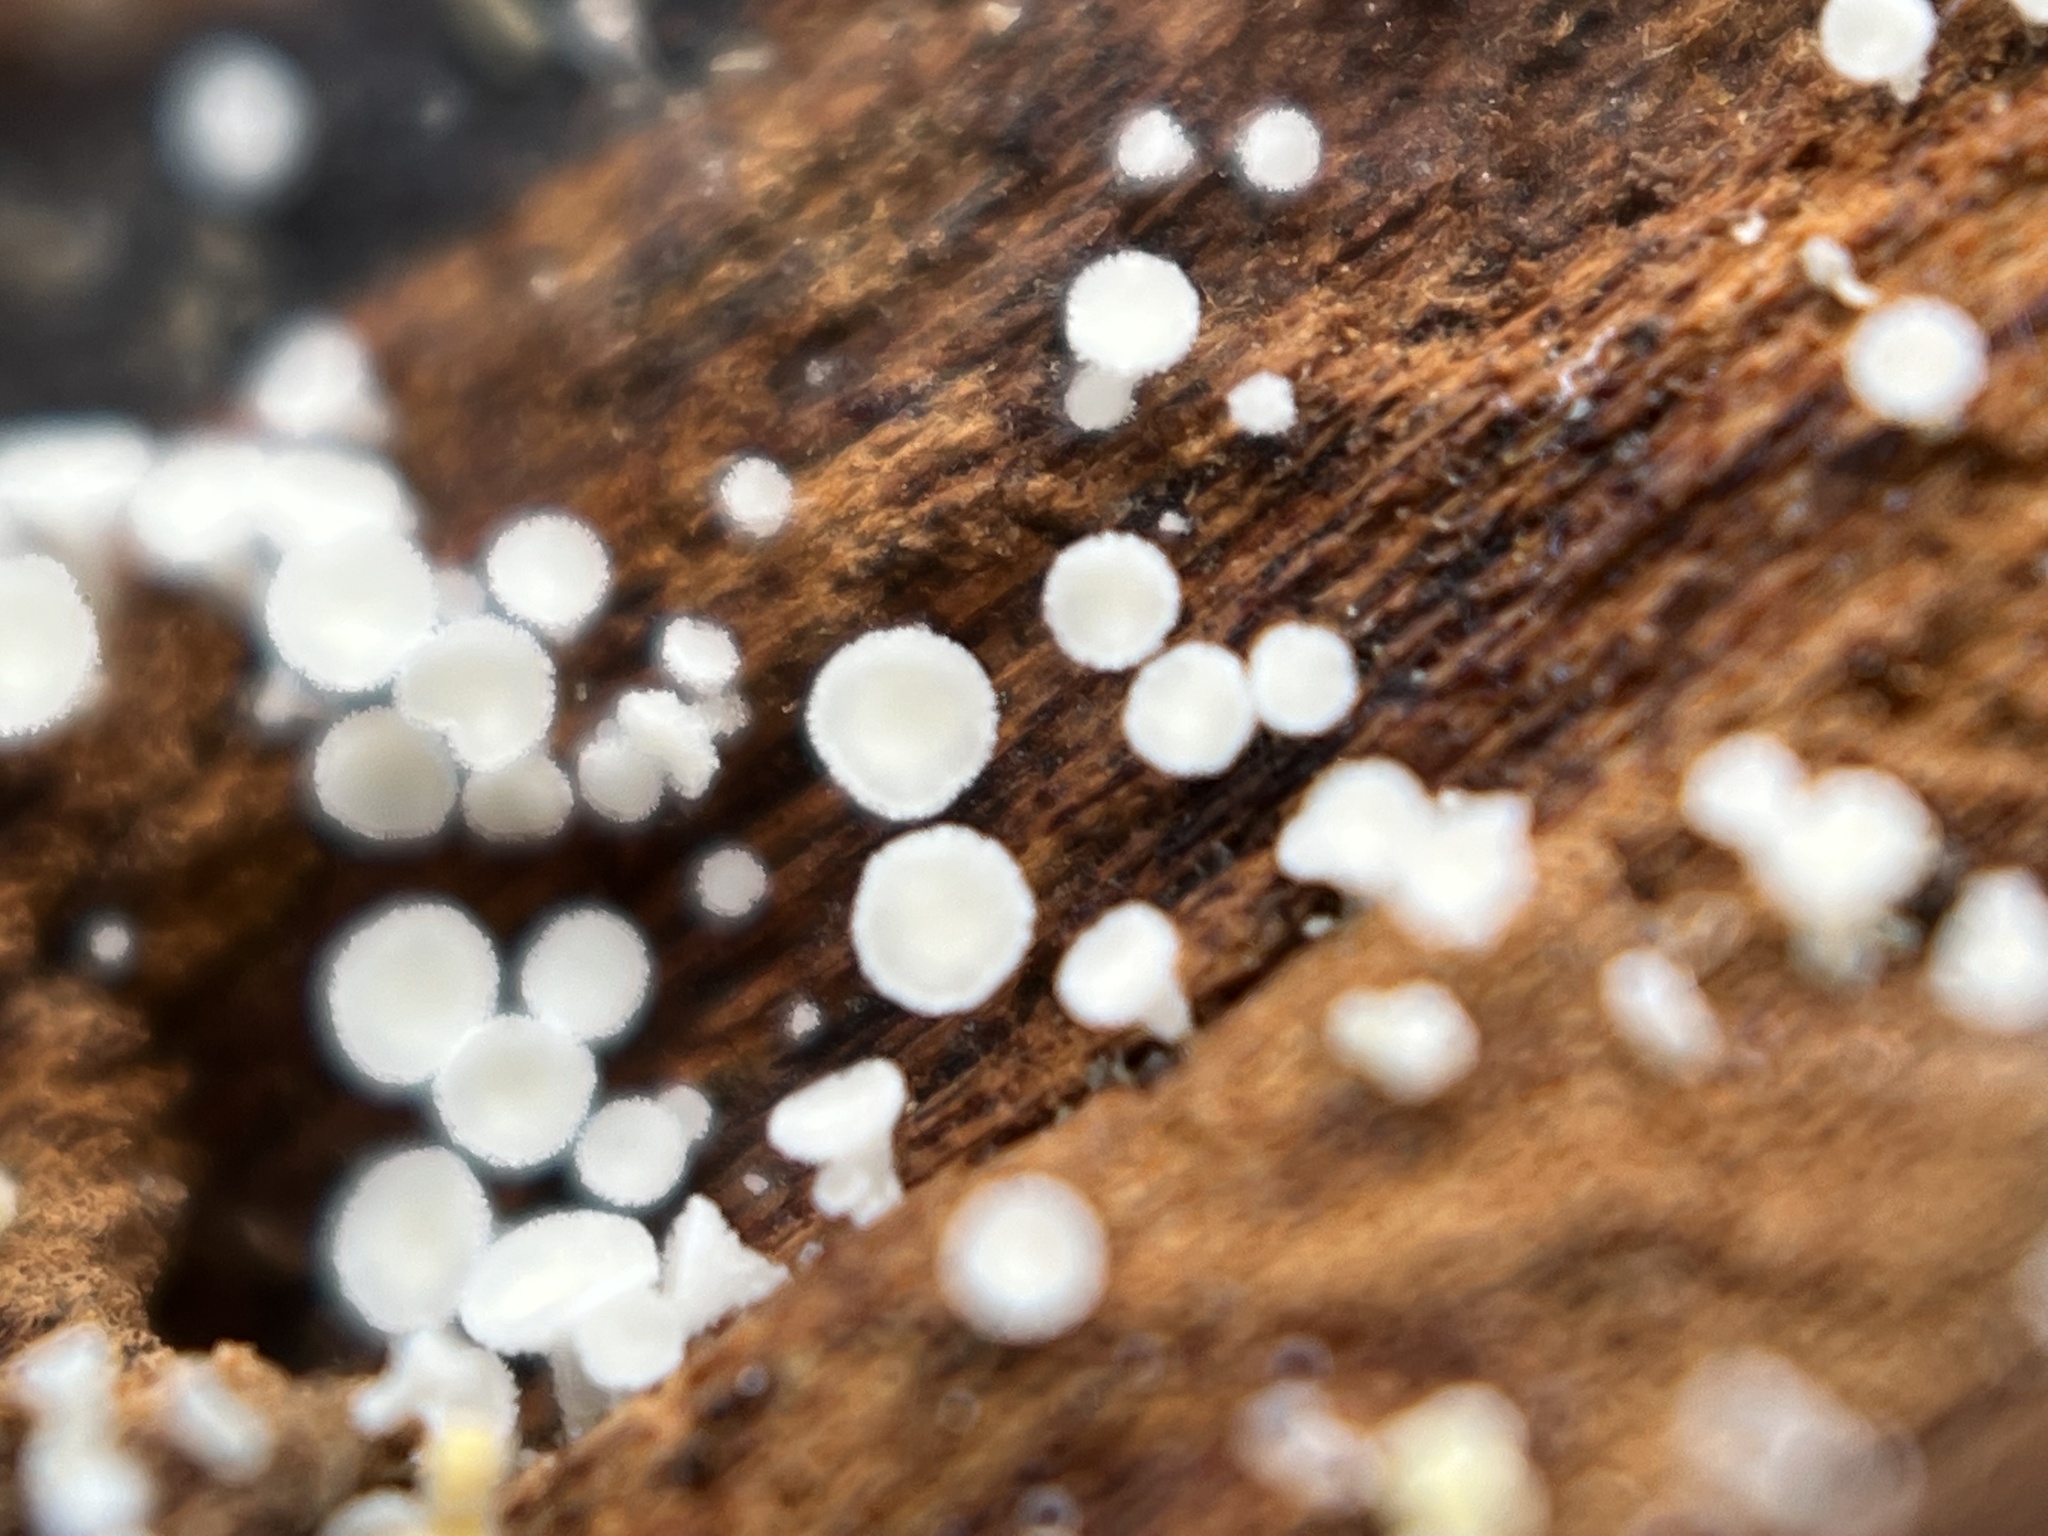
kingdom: Fungi
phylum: Ascomycota
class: Leotiomycetes
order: Helotiales
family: Lachnaceae
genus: Lachnum
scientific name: Lachnum virgineum
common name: Snowy disco
